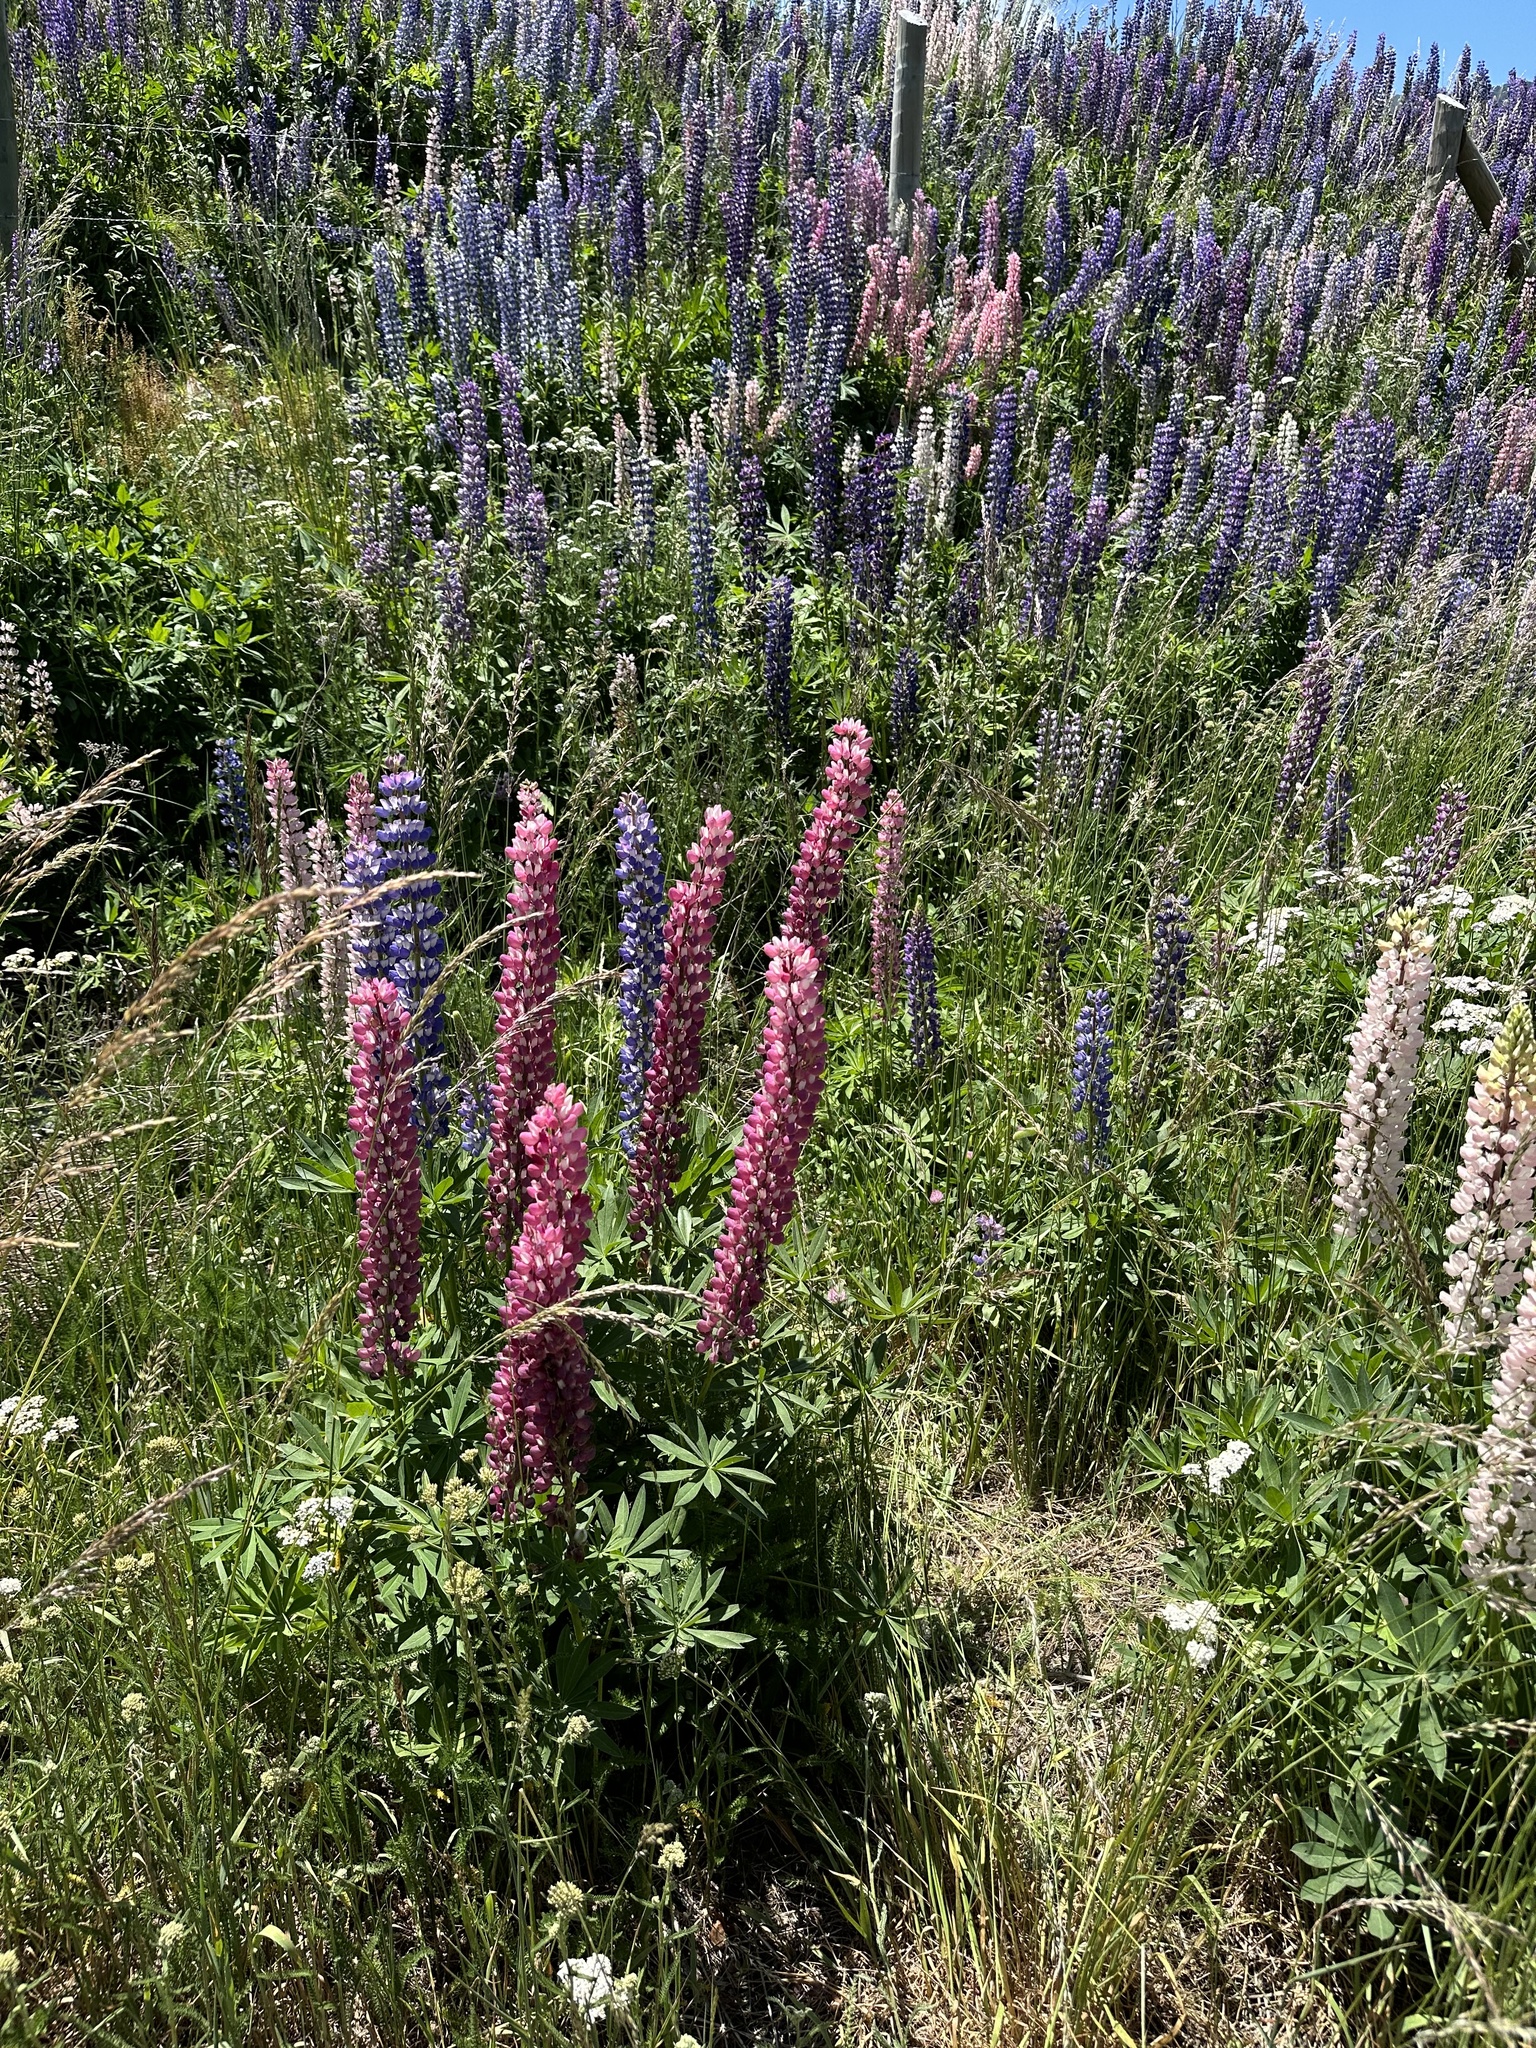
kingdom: Plantae
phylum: Tracheophyta
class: Magnoliopsida
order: Fabales
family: Fabaceae
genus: Lupinus
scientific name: Lupinus polyphyllus
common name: Garden lupin
